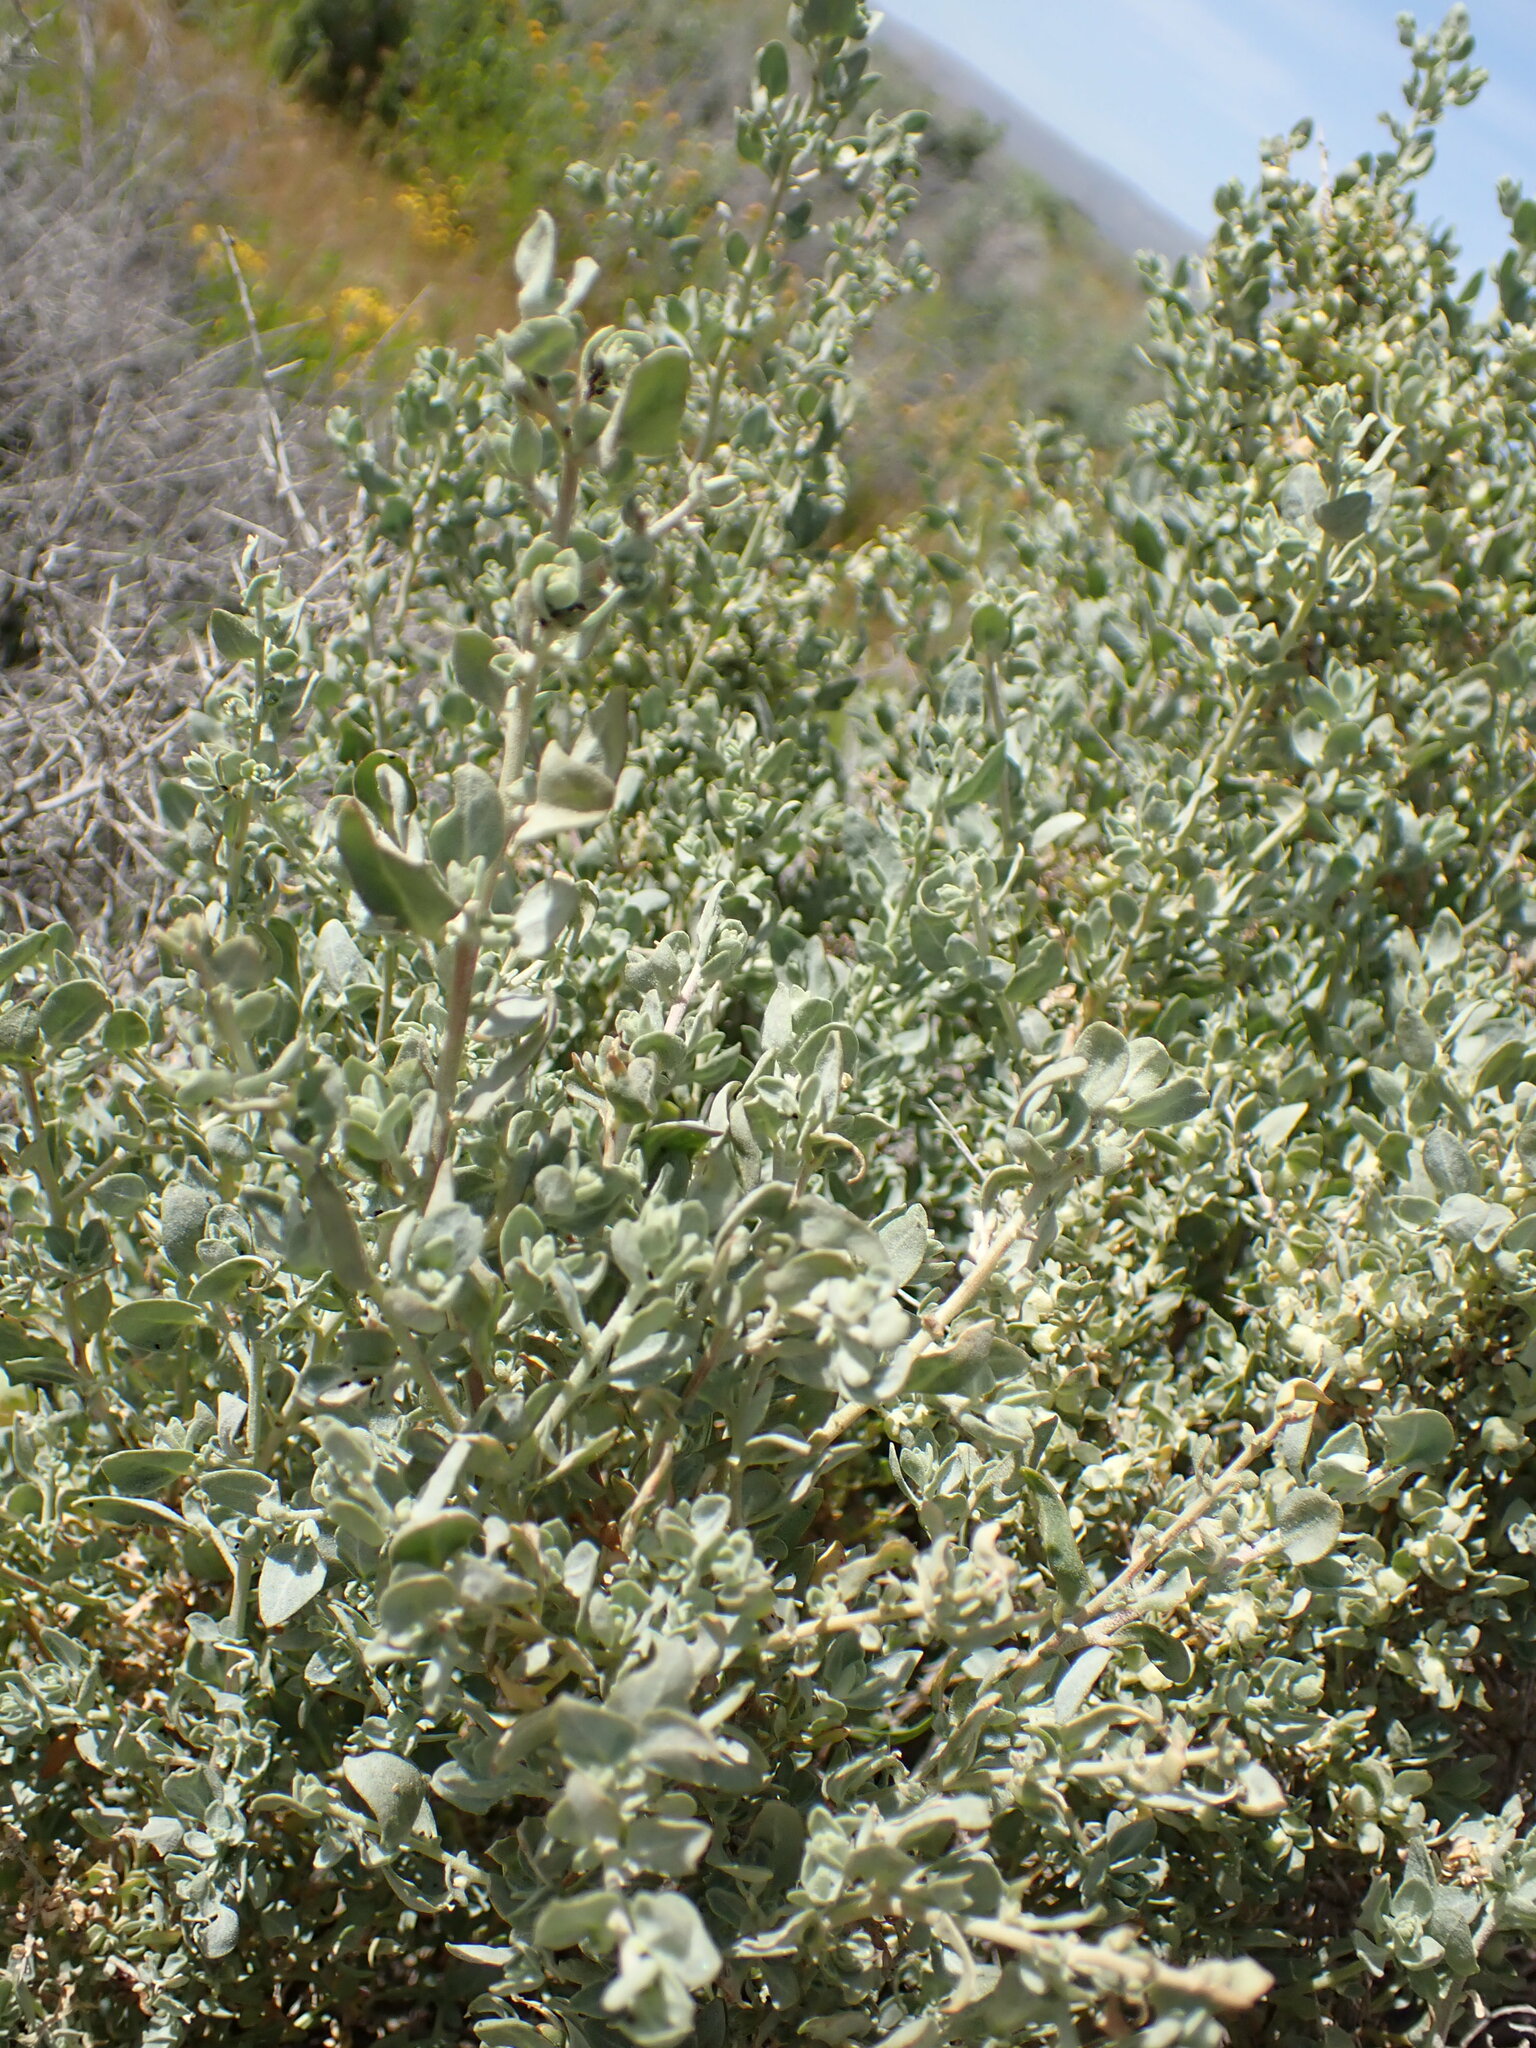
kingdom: Plantae
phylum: Tracheophyta
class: Magnoliopsida
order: Caryophyllales
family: Amaranthaceae
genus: Atriplex
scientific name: Atriplex spinifera
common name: Spiny saltbush
